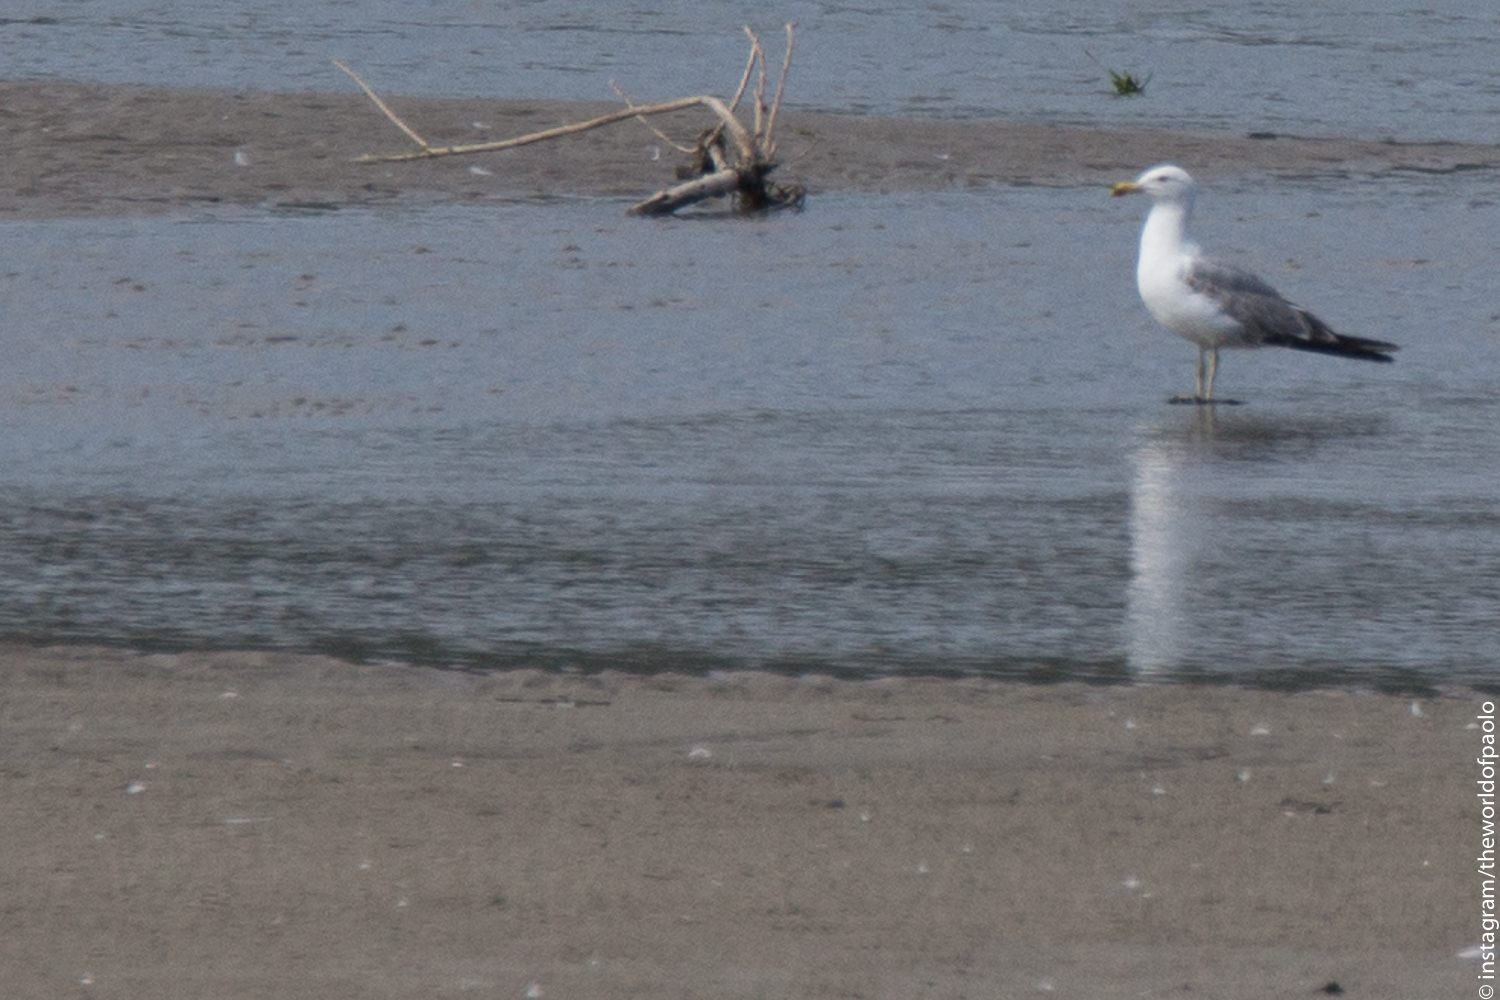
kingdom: Animalia
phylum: Chordata
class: Aves
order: Charadriiformes
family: Laridae
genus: Larus
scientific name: Larus michahellis
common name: Yellow-legged gull
